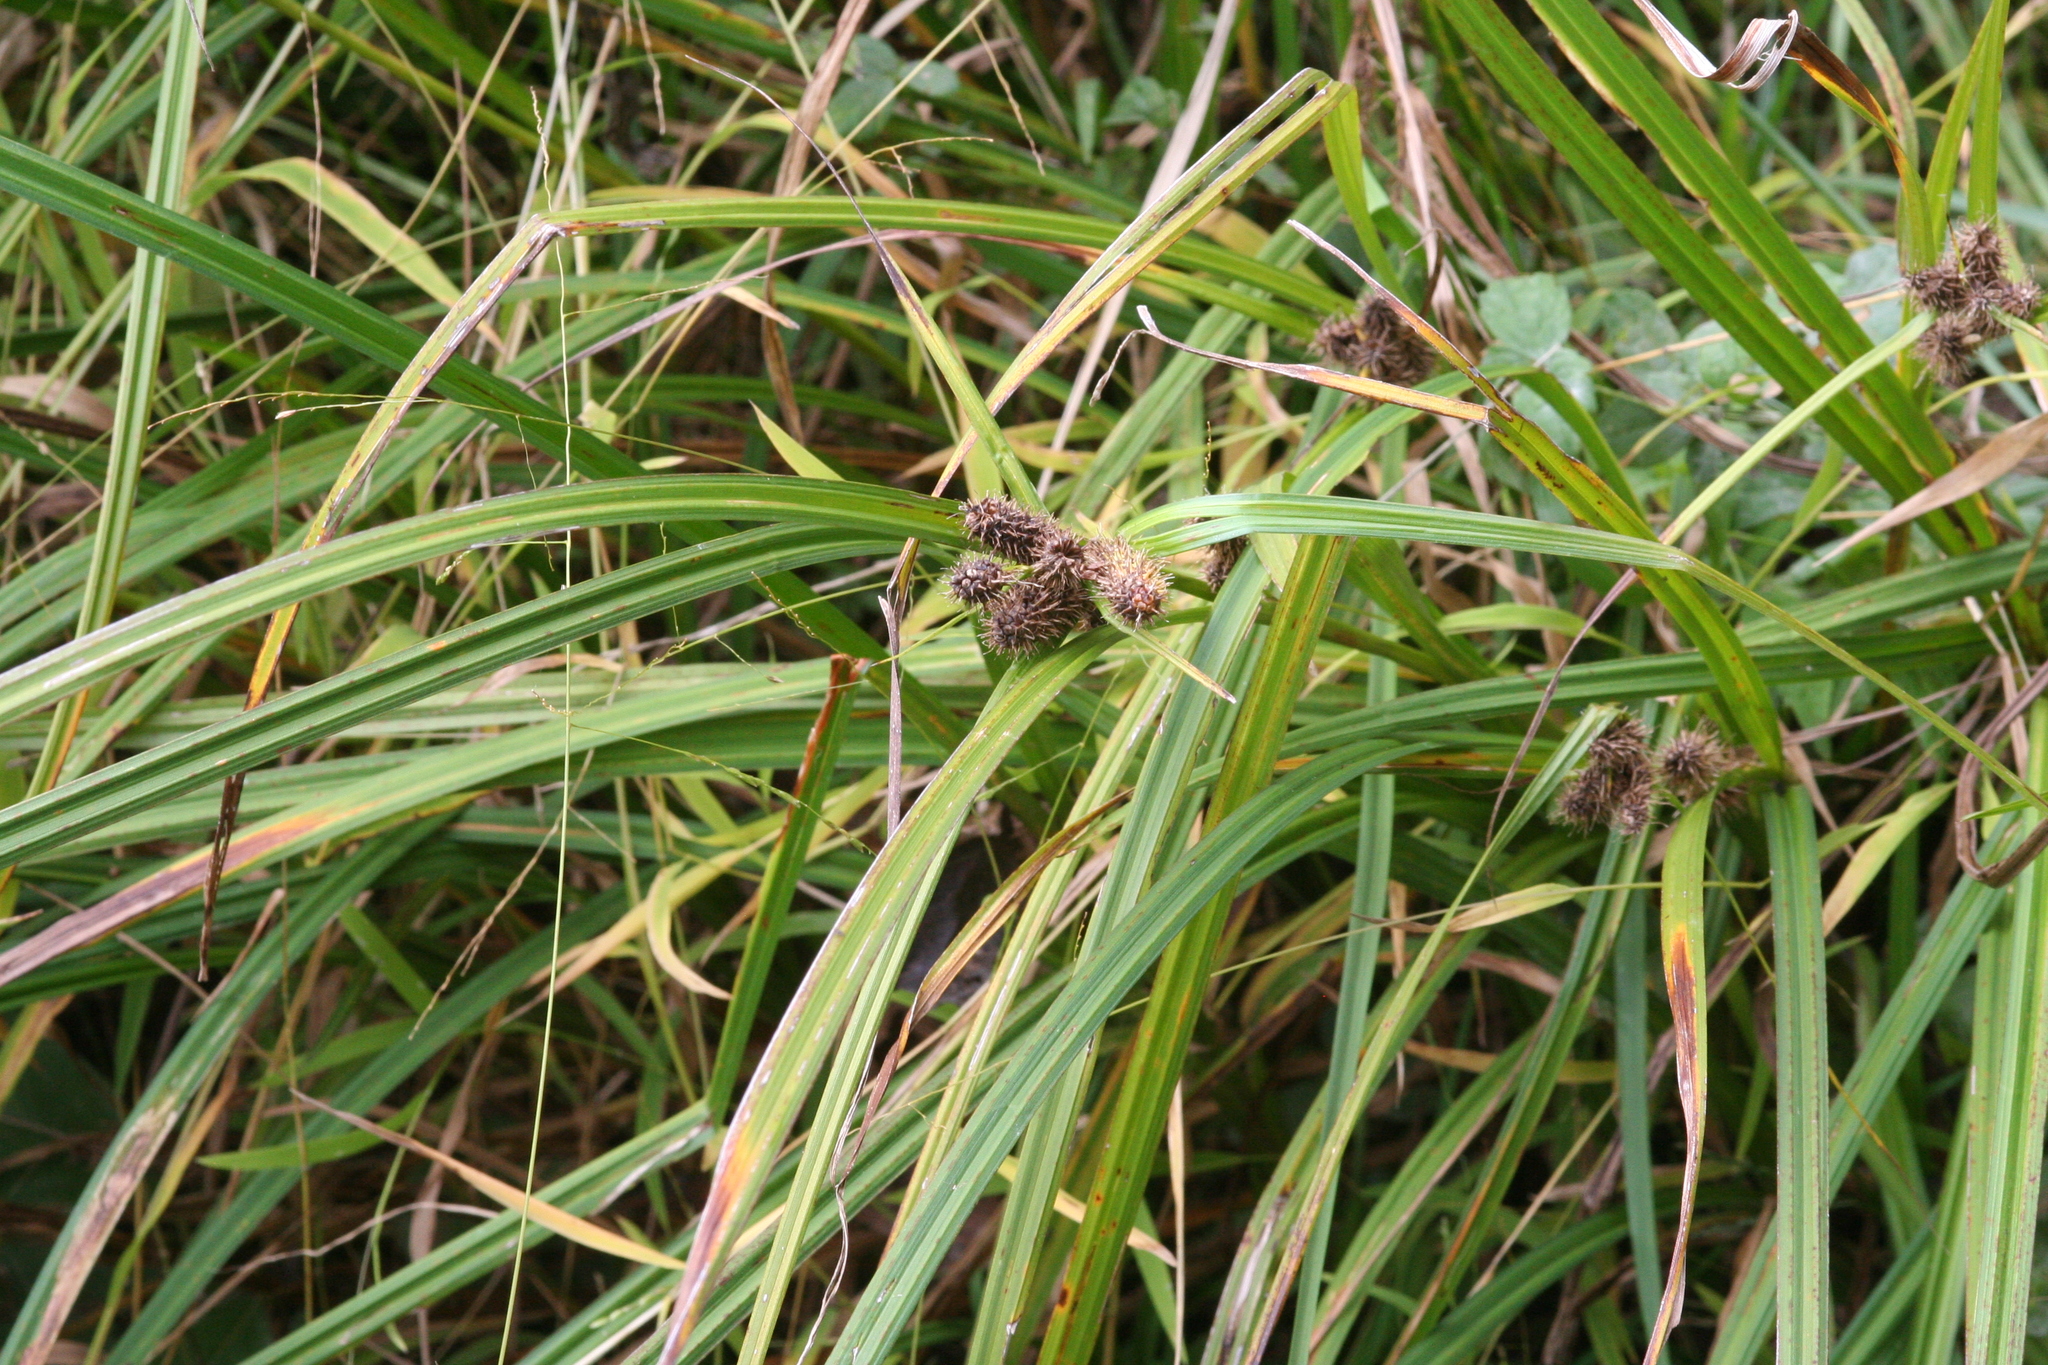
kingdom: Plantae
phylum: Tracheophyta
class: Liliopsida
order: Poales
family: Cyperaceae
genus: Carex
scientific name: Carex frankii
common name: Frank's sedge
